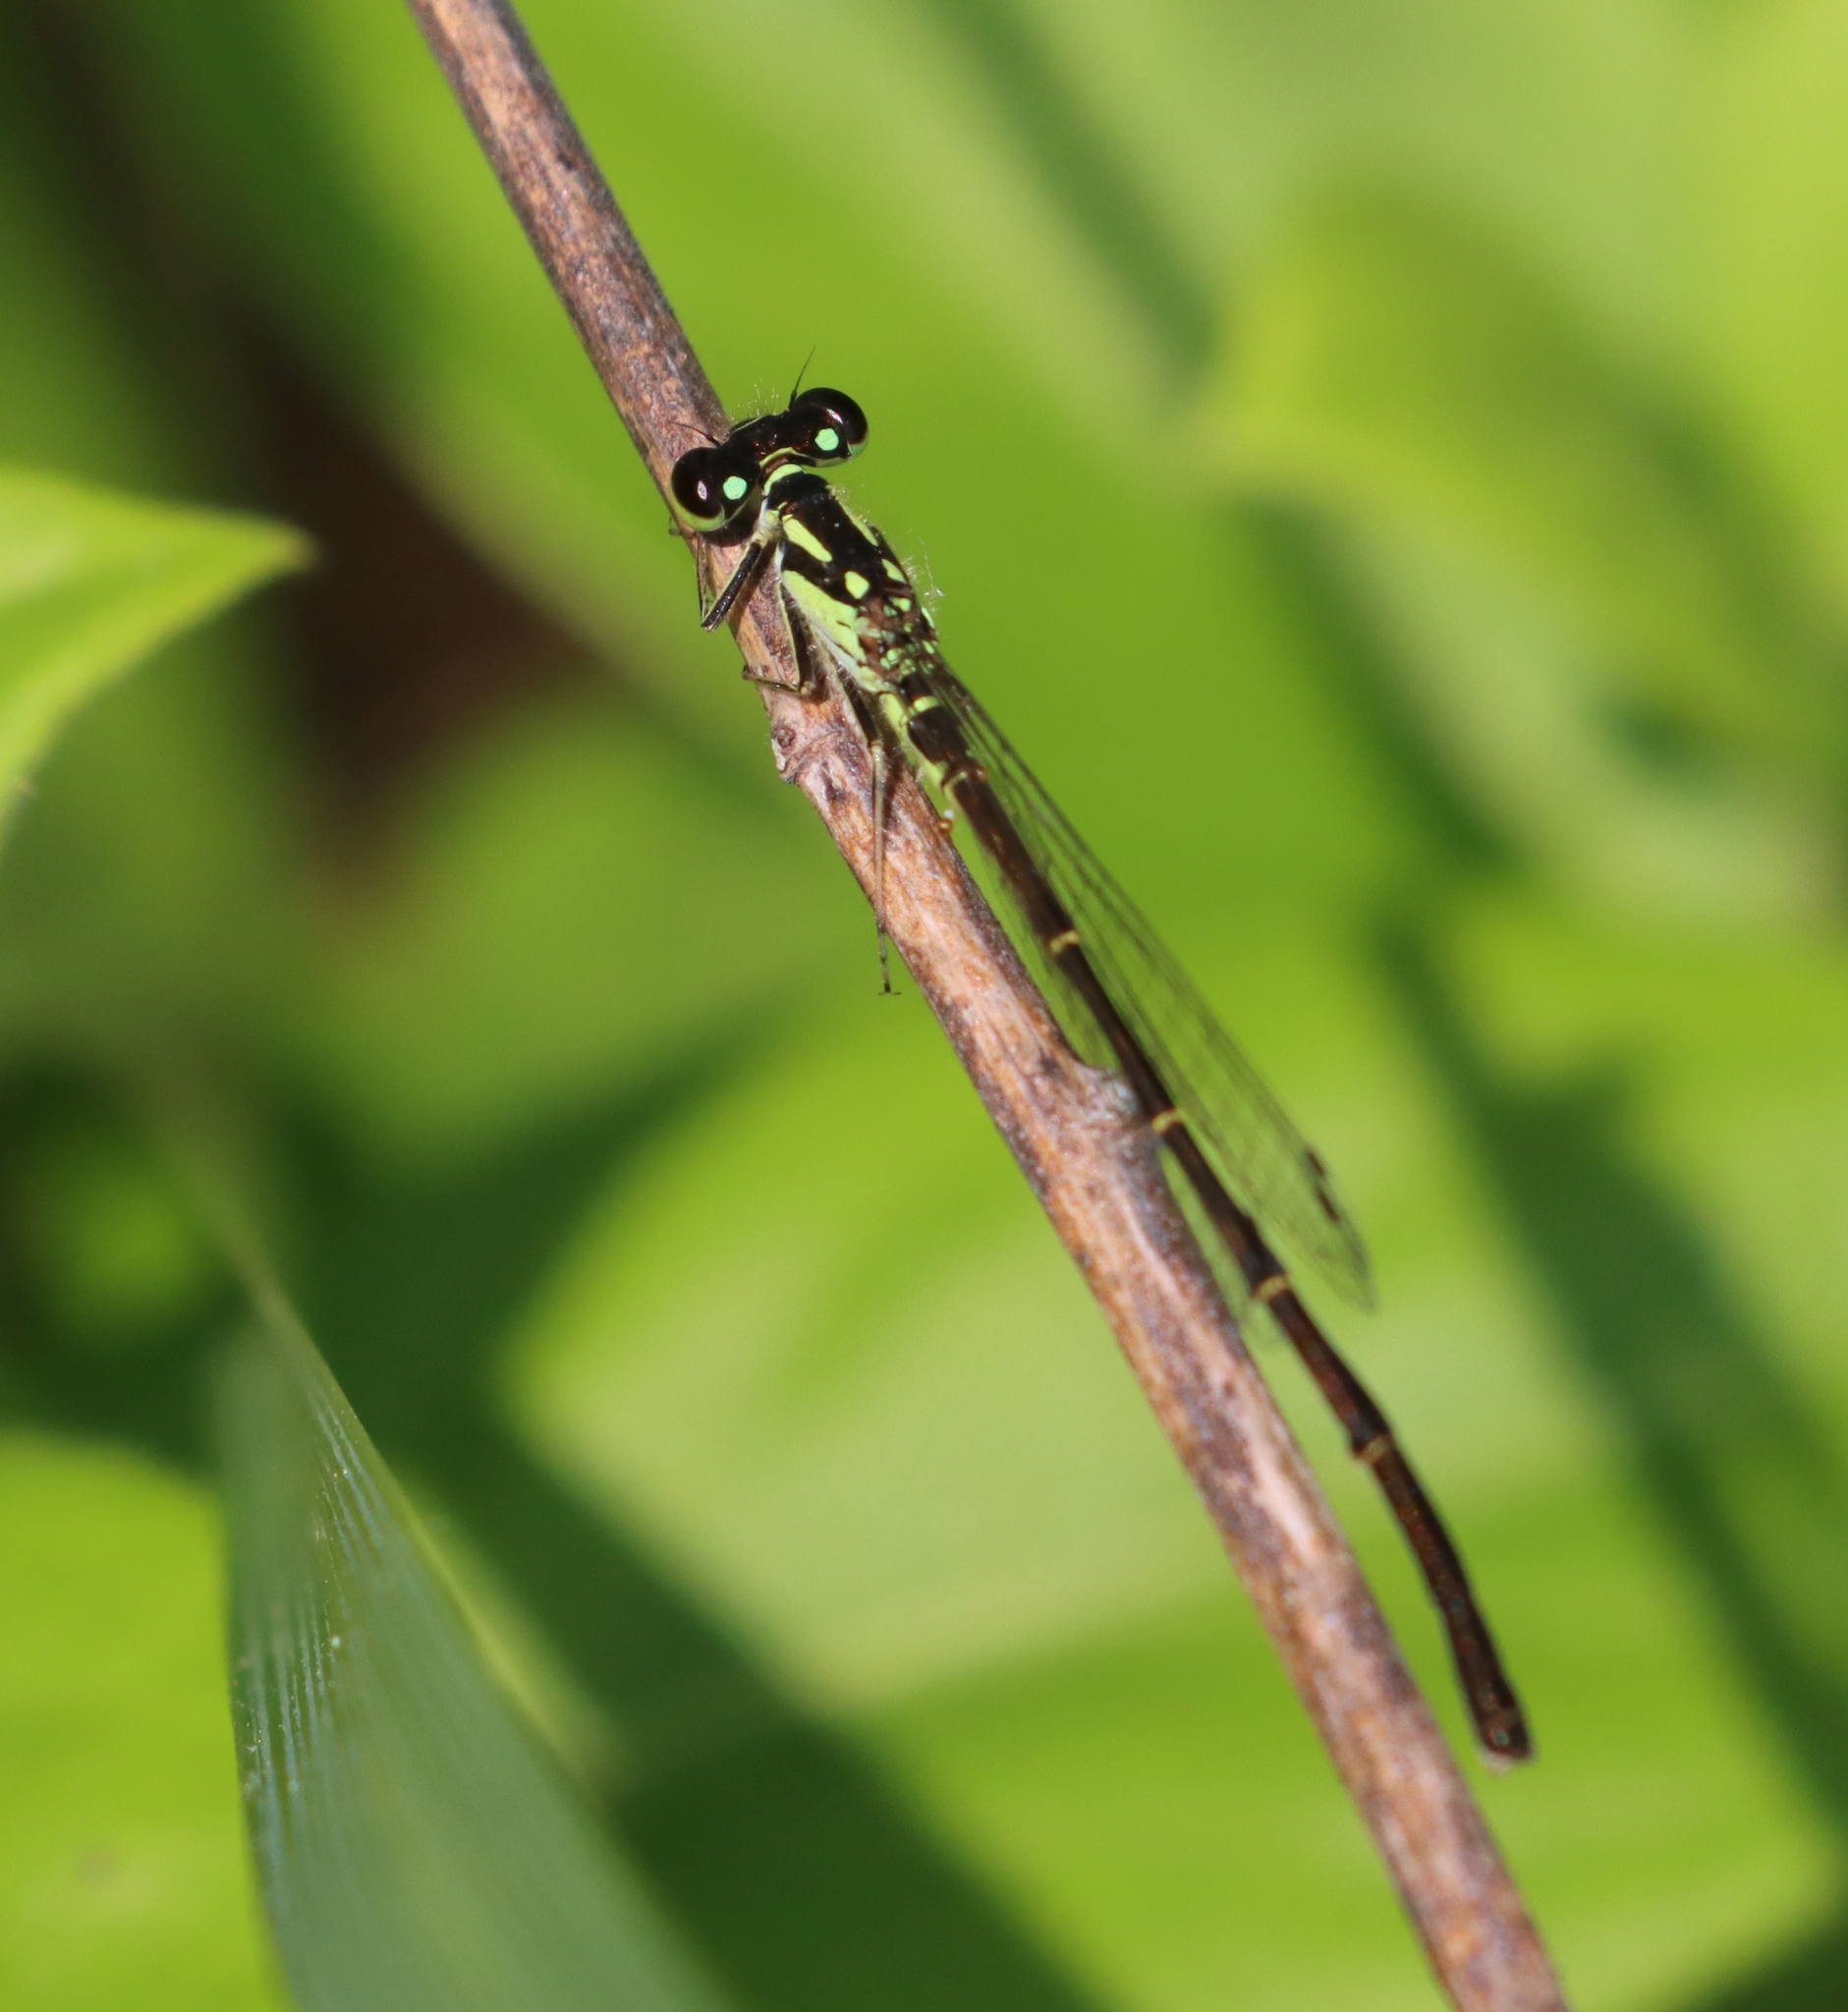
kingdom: Animalia
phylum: Arthropoda
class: Insecta
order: Odonata
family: Coenagrionidae
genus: Ischnura
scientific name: Ischnura posita
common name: Fragile forktail
